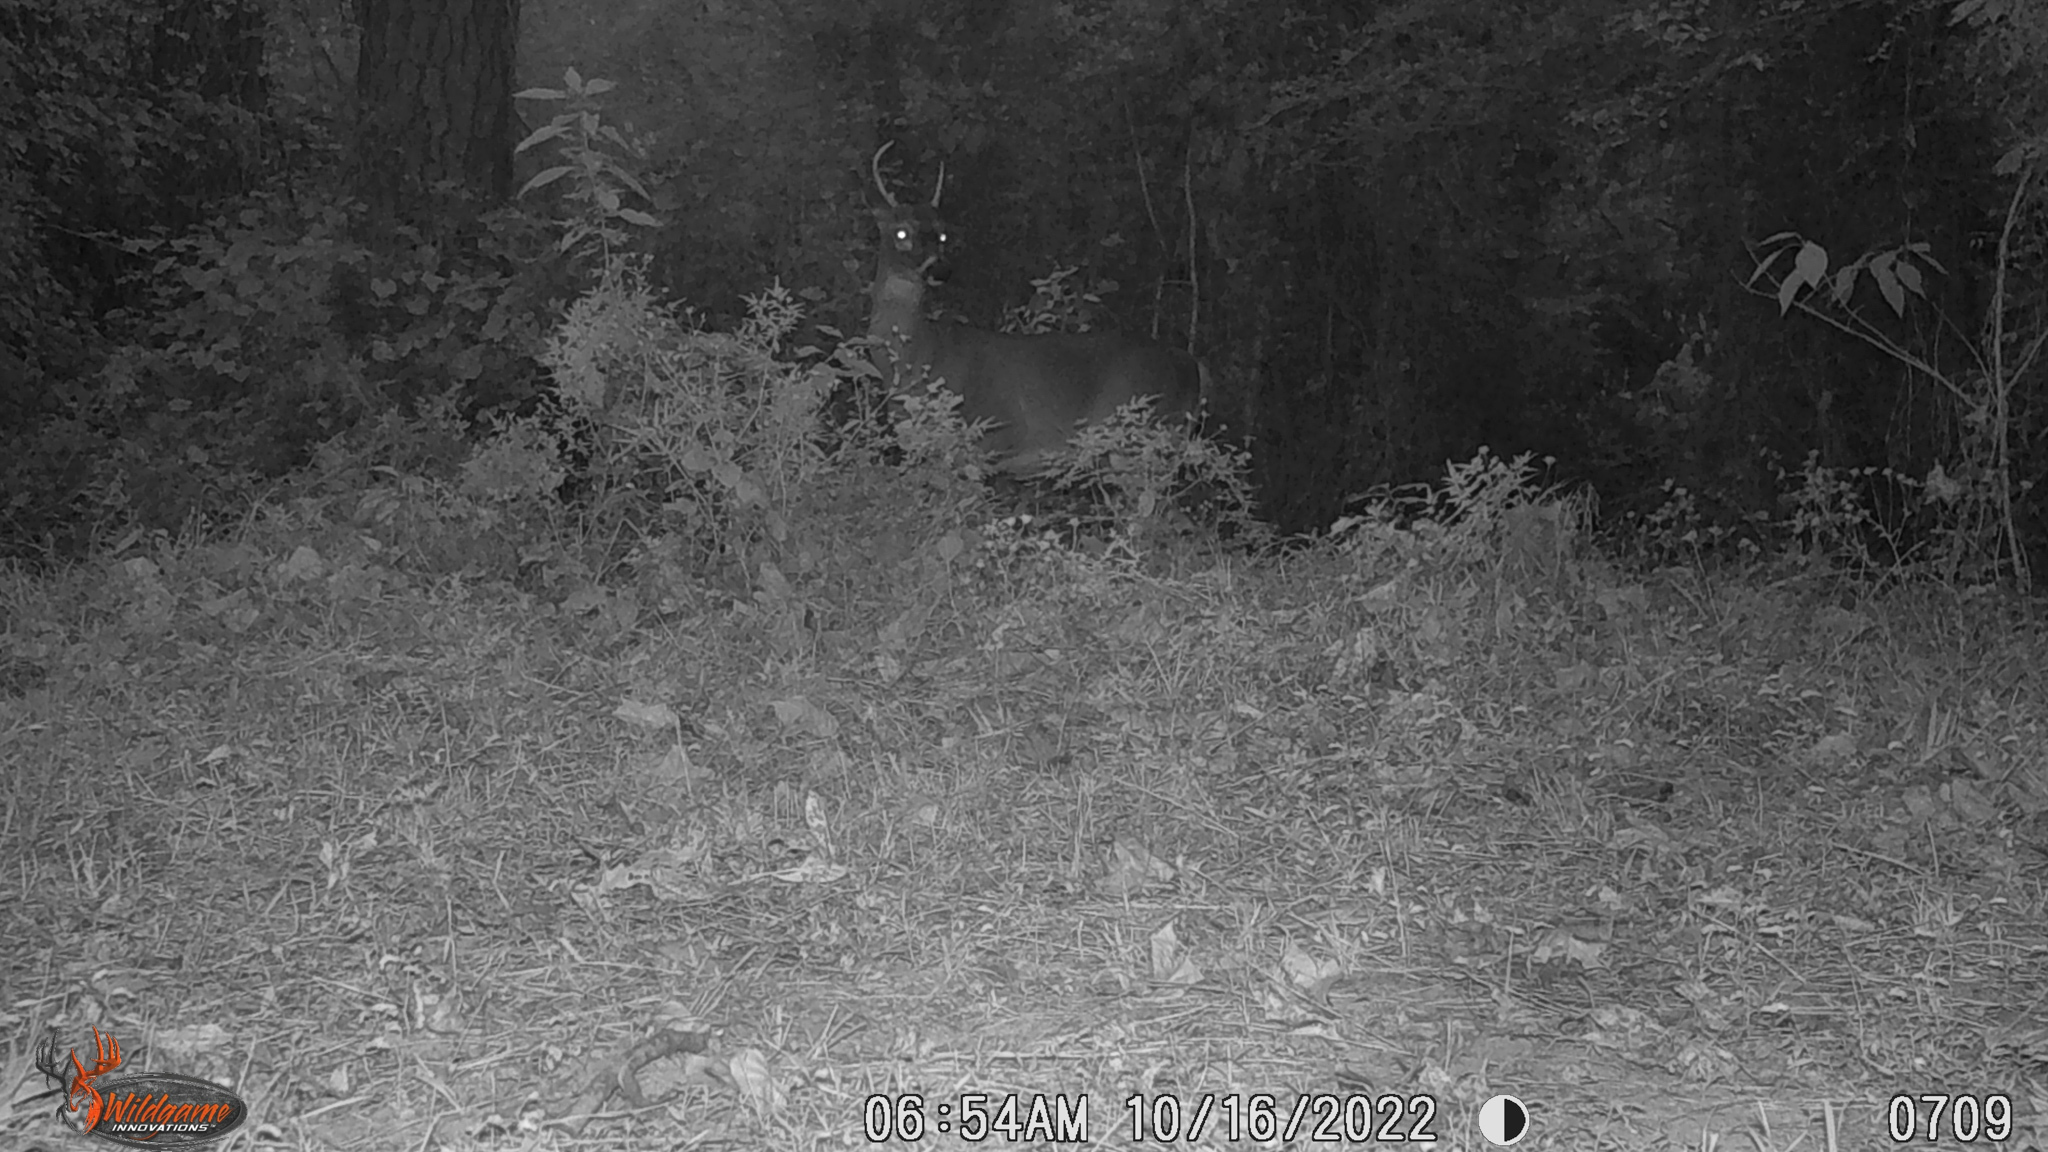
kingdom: Animalia
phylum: Chordata
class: Mammalia
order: Artiodactyla
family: Cervidae
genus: Odocoileus
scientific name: Odocoileus virginianus
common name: White-tailed deer
